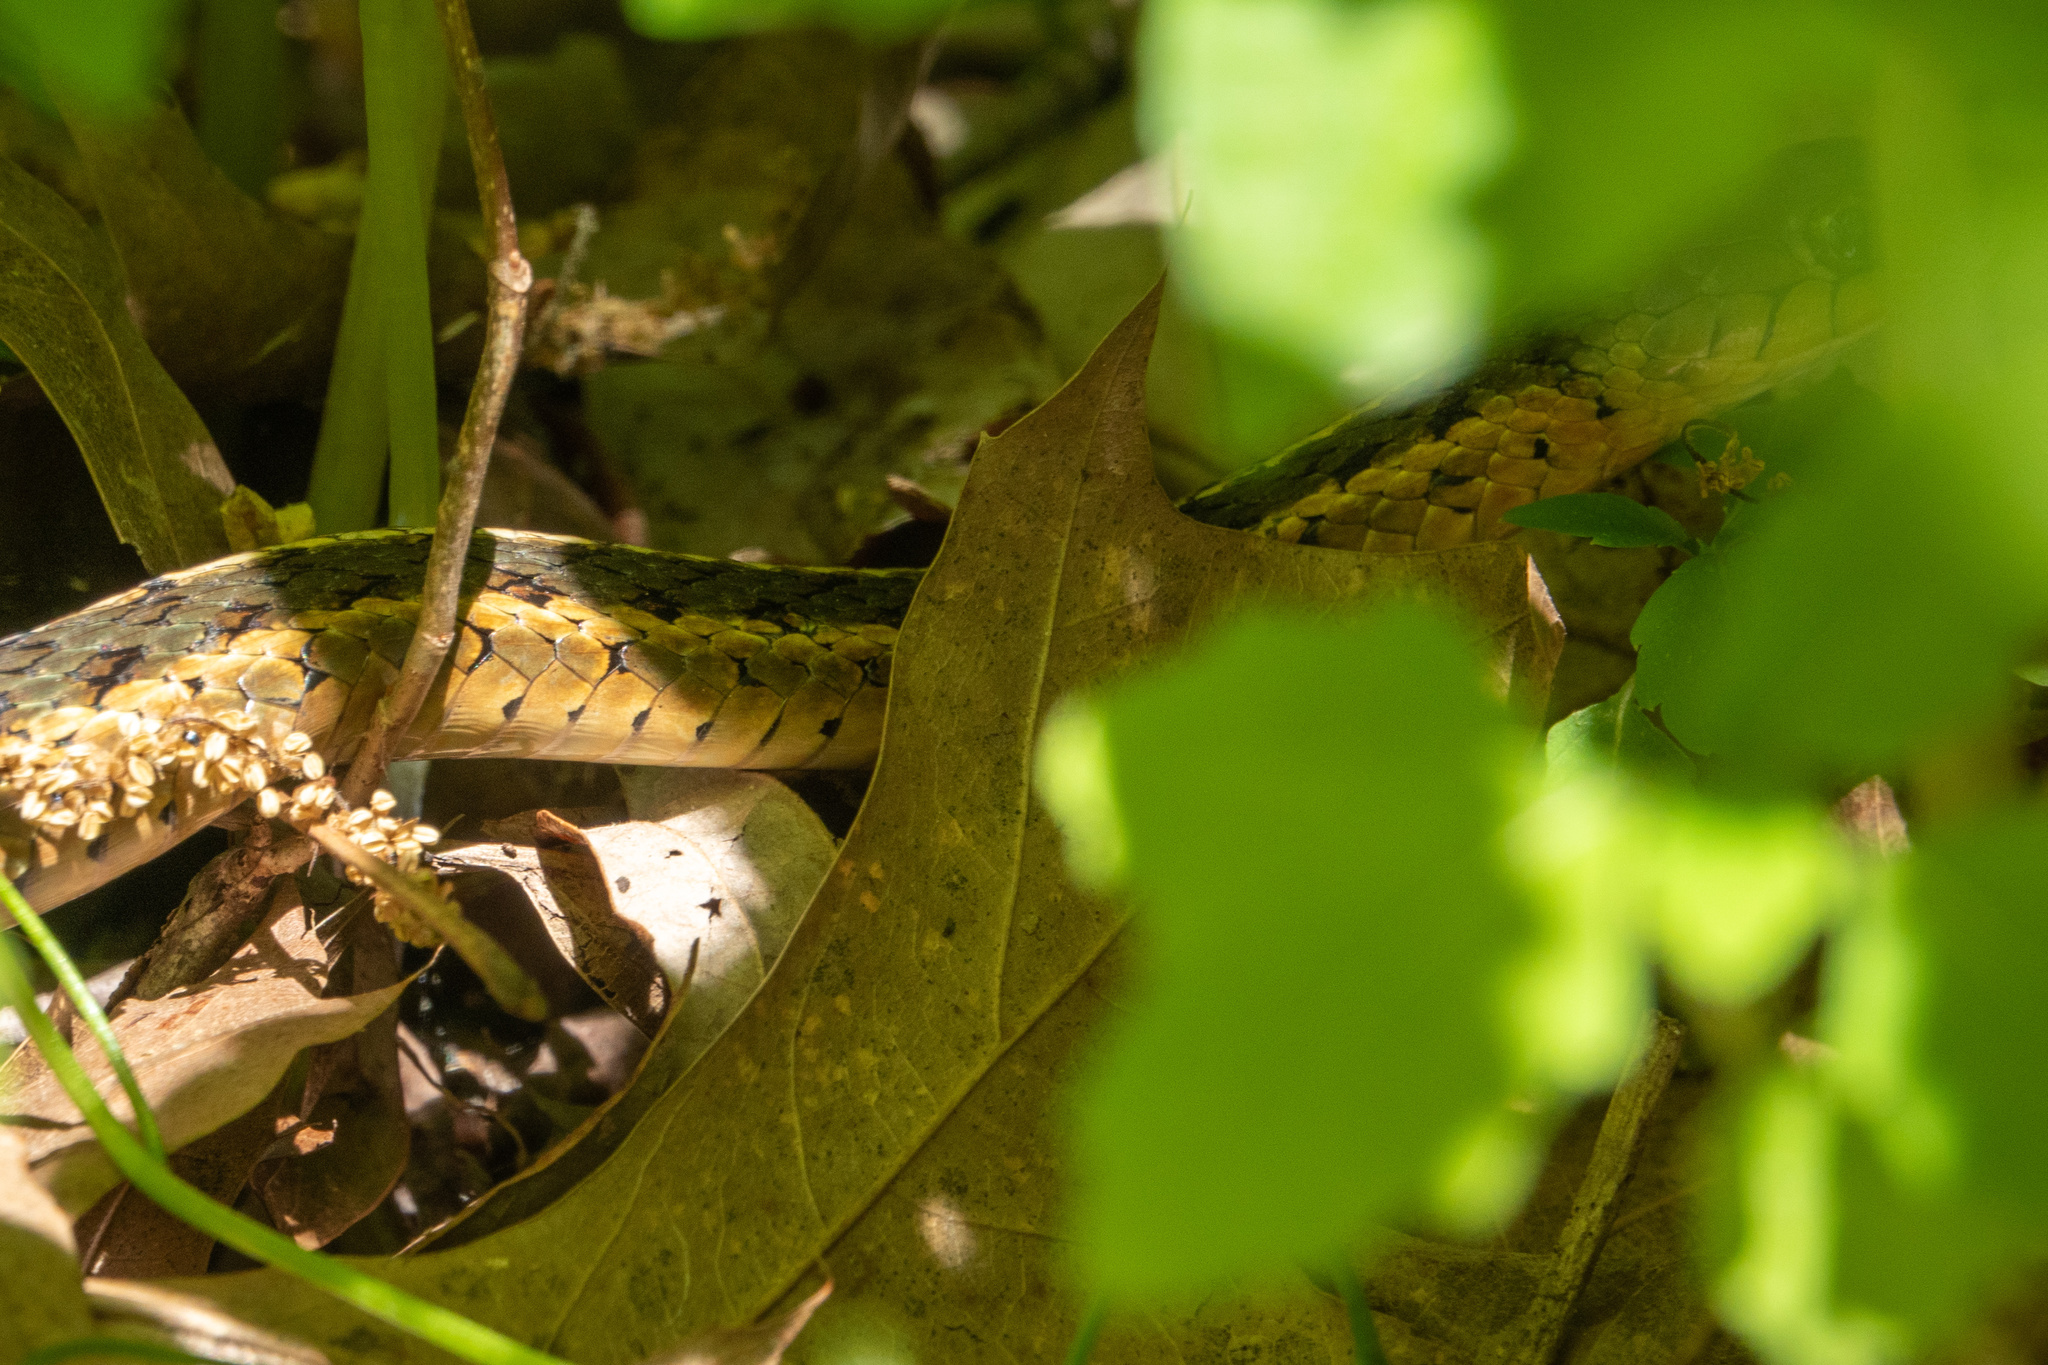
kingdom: Animalia
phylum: Chordata
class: Squamata
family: Colubridae
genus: Thamnophis
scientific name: Thamnophis sirtalis
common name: Common garter snake
